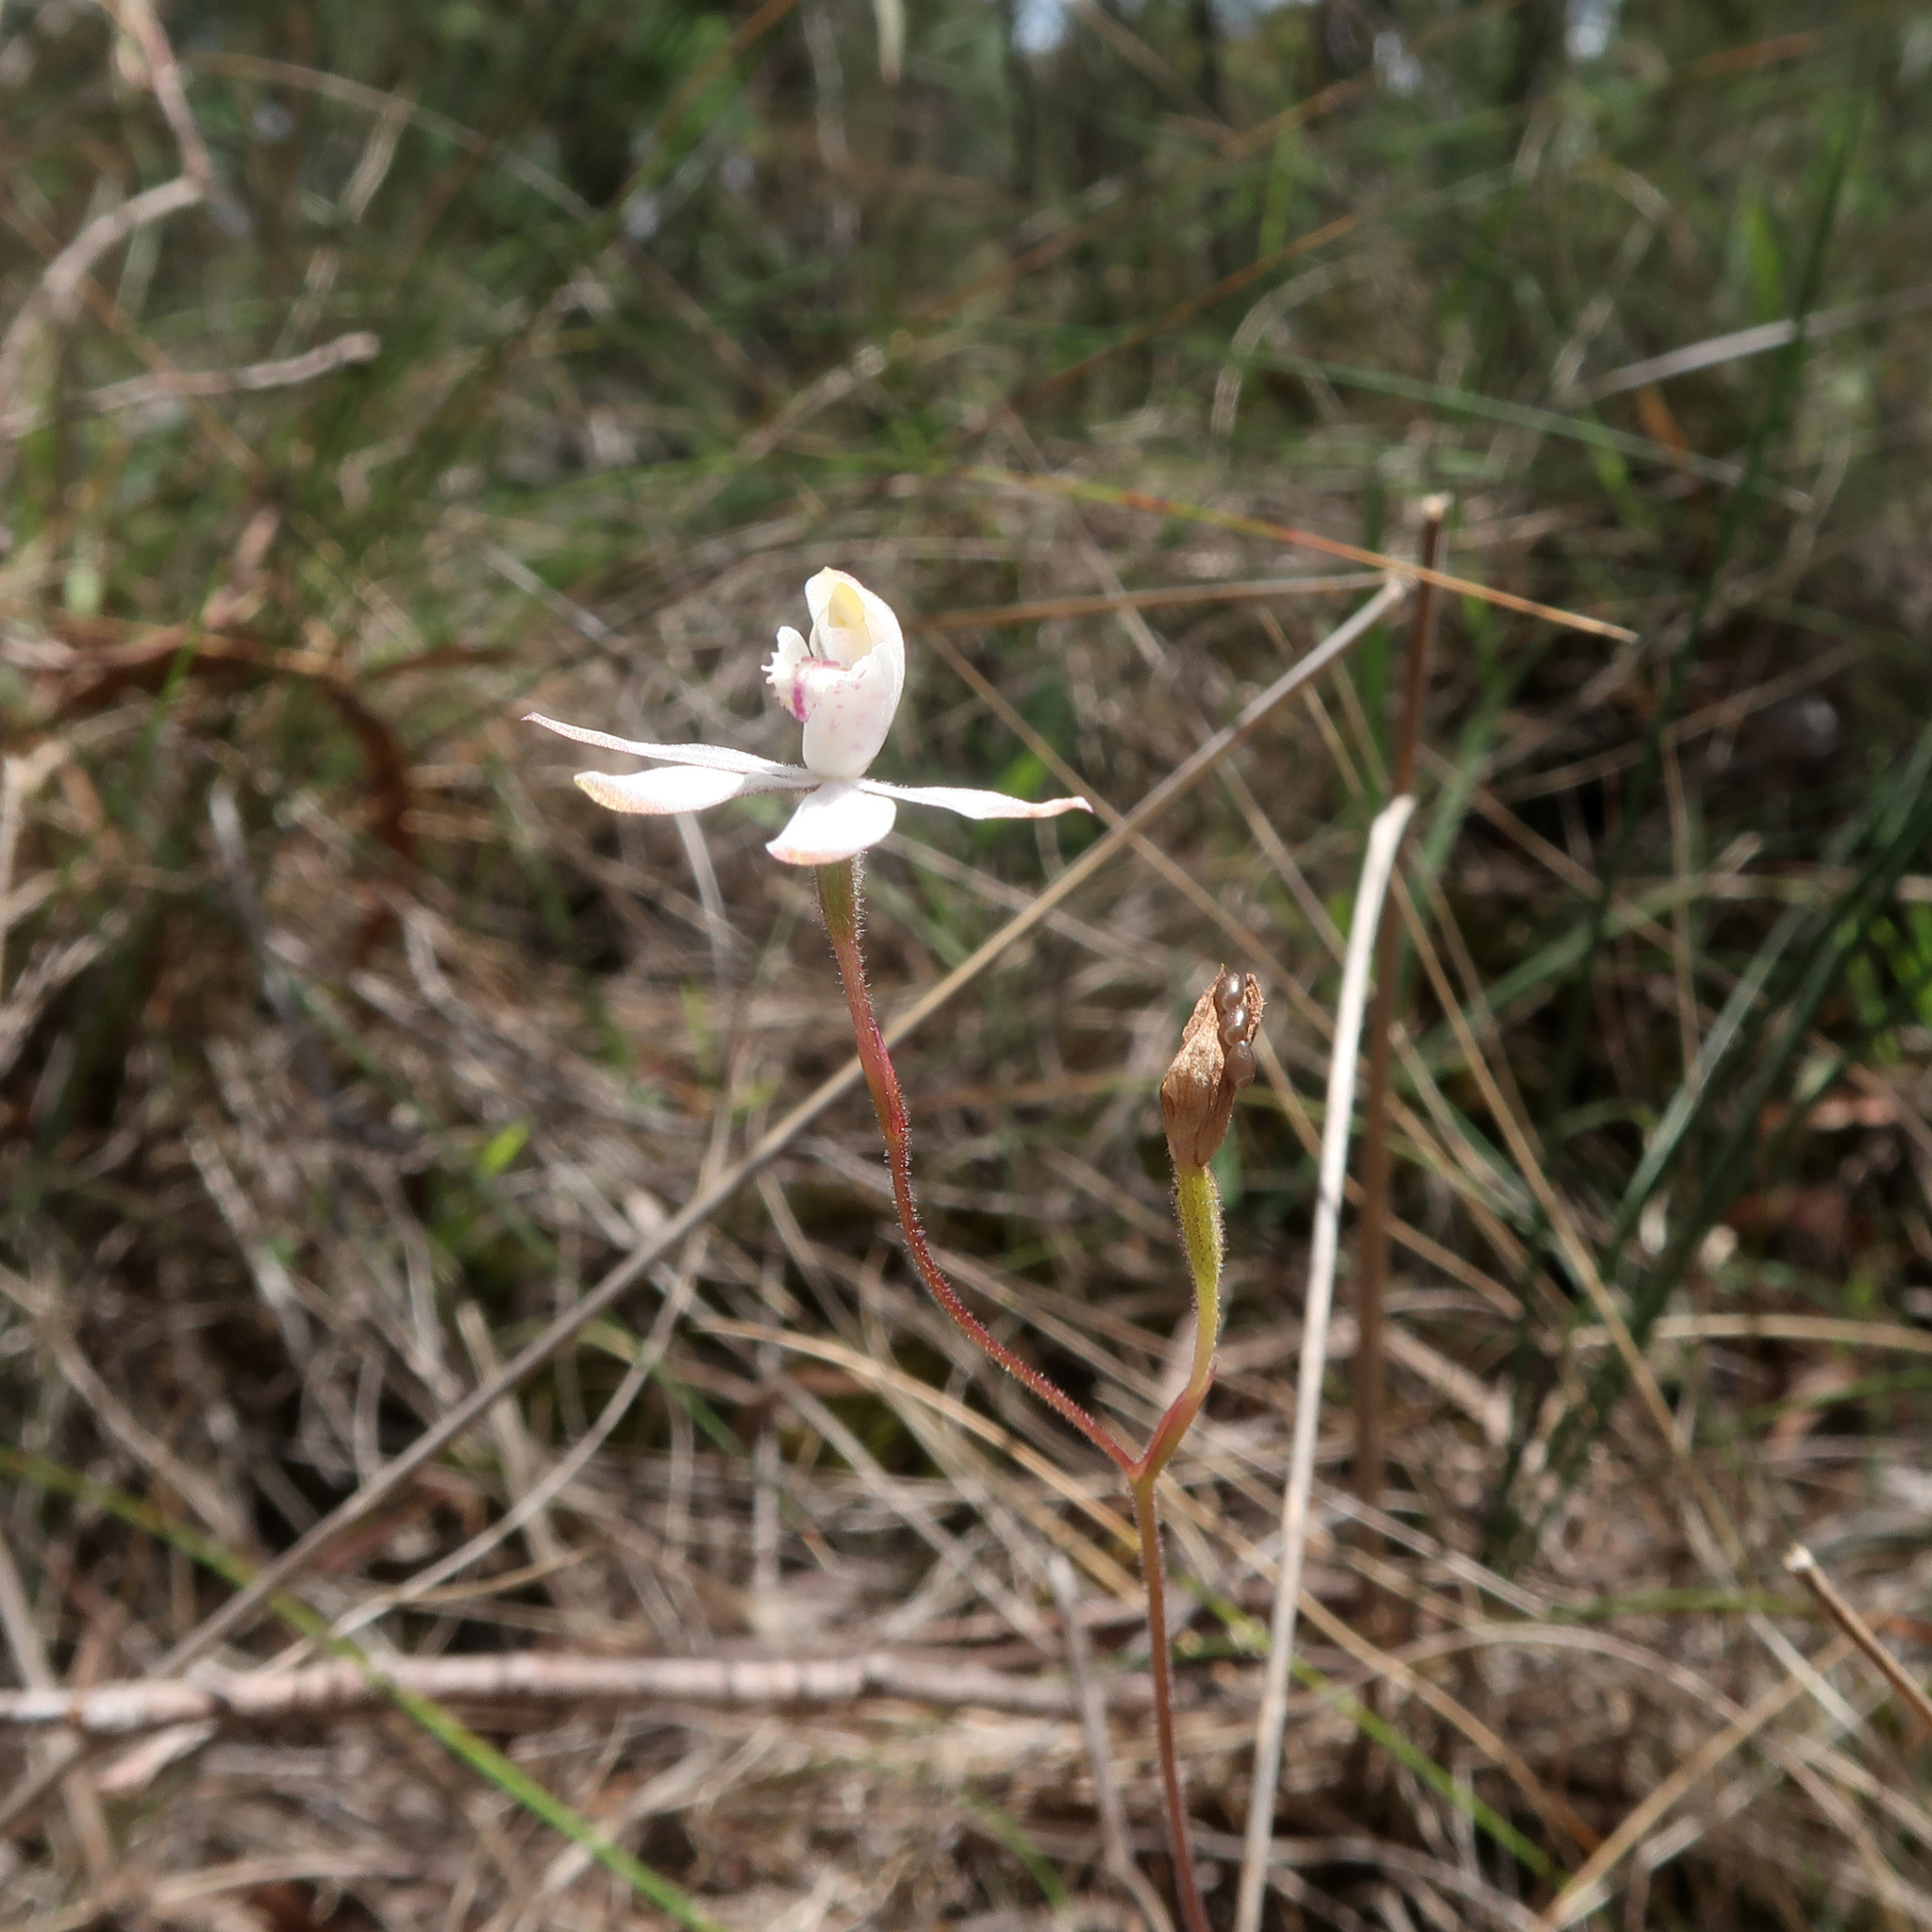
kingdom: Plantae
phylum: Tracheophyta
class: Liliopsida
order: Asparagales
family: Orchidaceae
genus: Caladenia
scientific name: Caladenia gracilis
